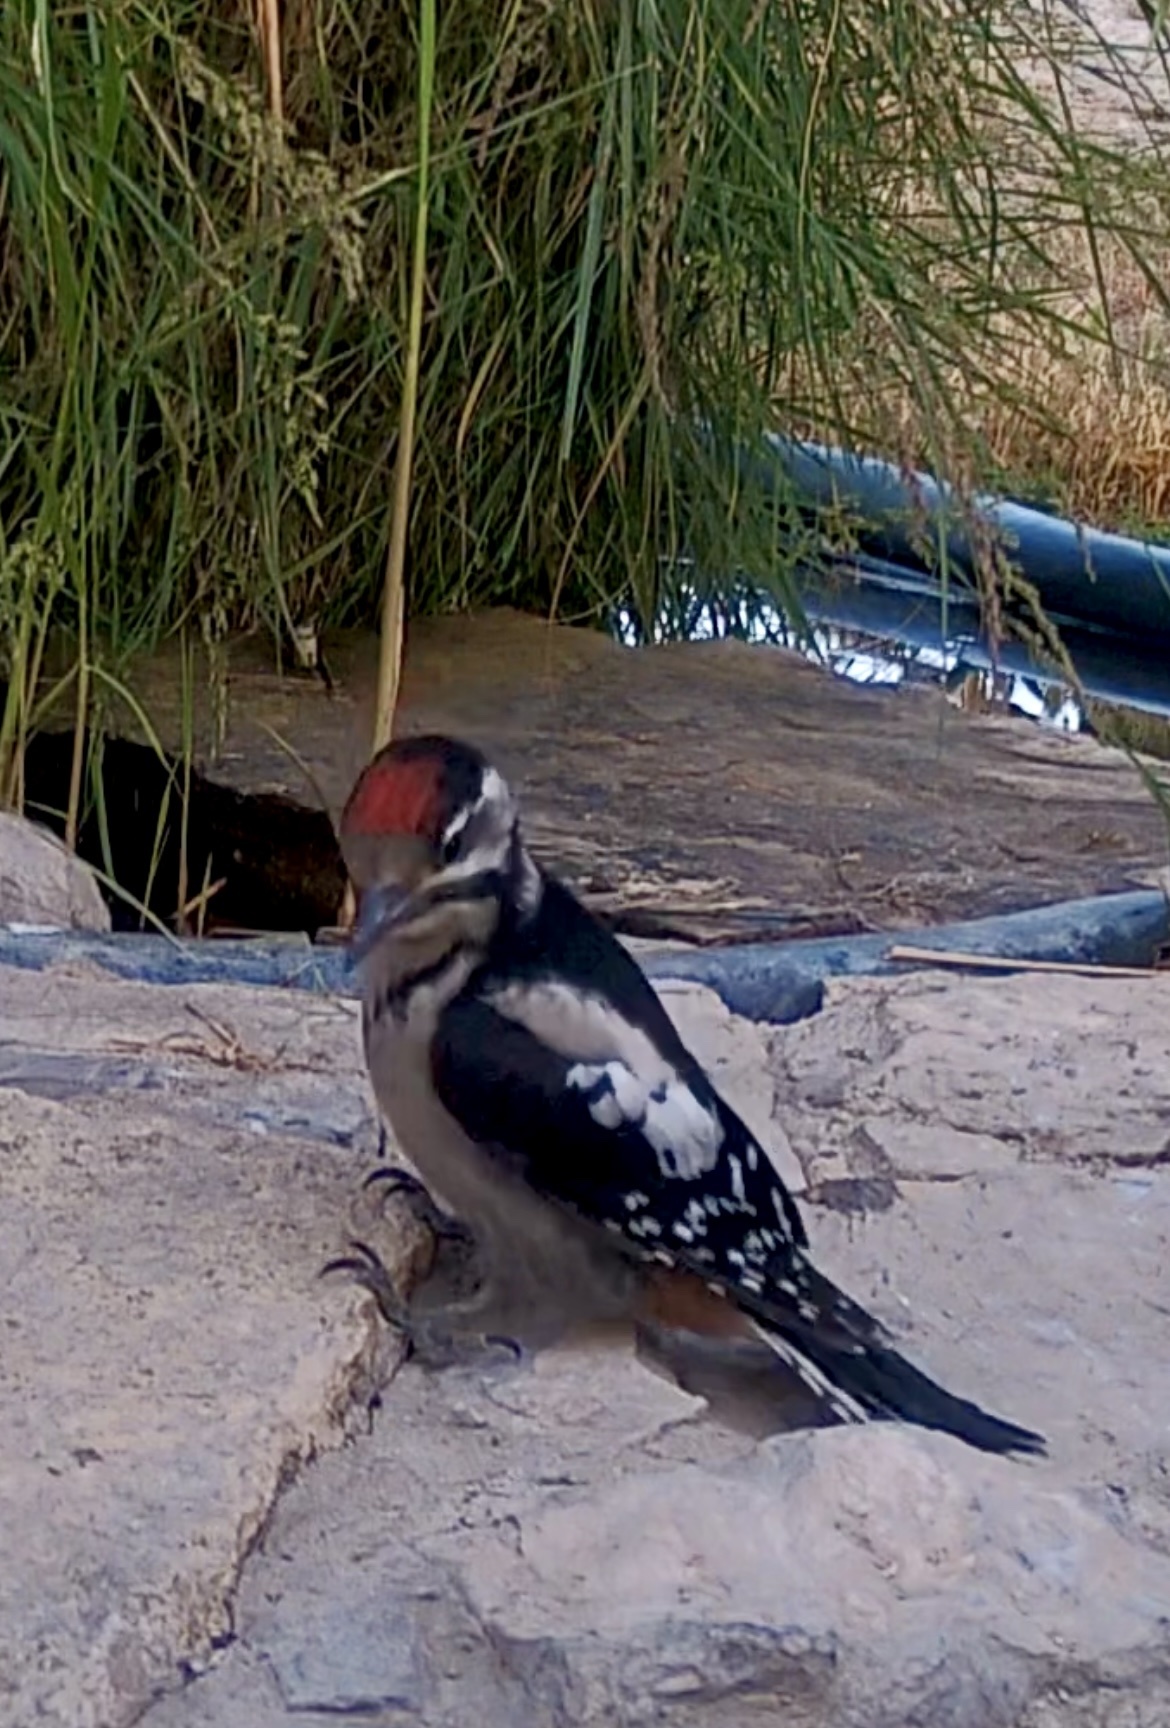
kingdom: Animalia
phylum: Chordata
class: Aves
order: Piciformes
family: Picidae
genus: Dendrocopos
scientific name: Dendrocopos major
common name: Great spotted woodpecker
